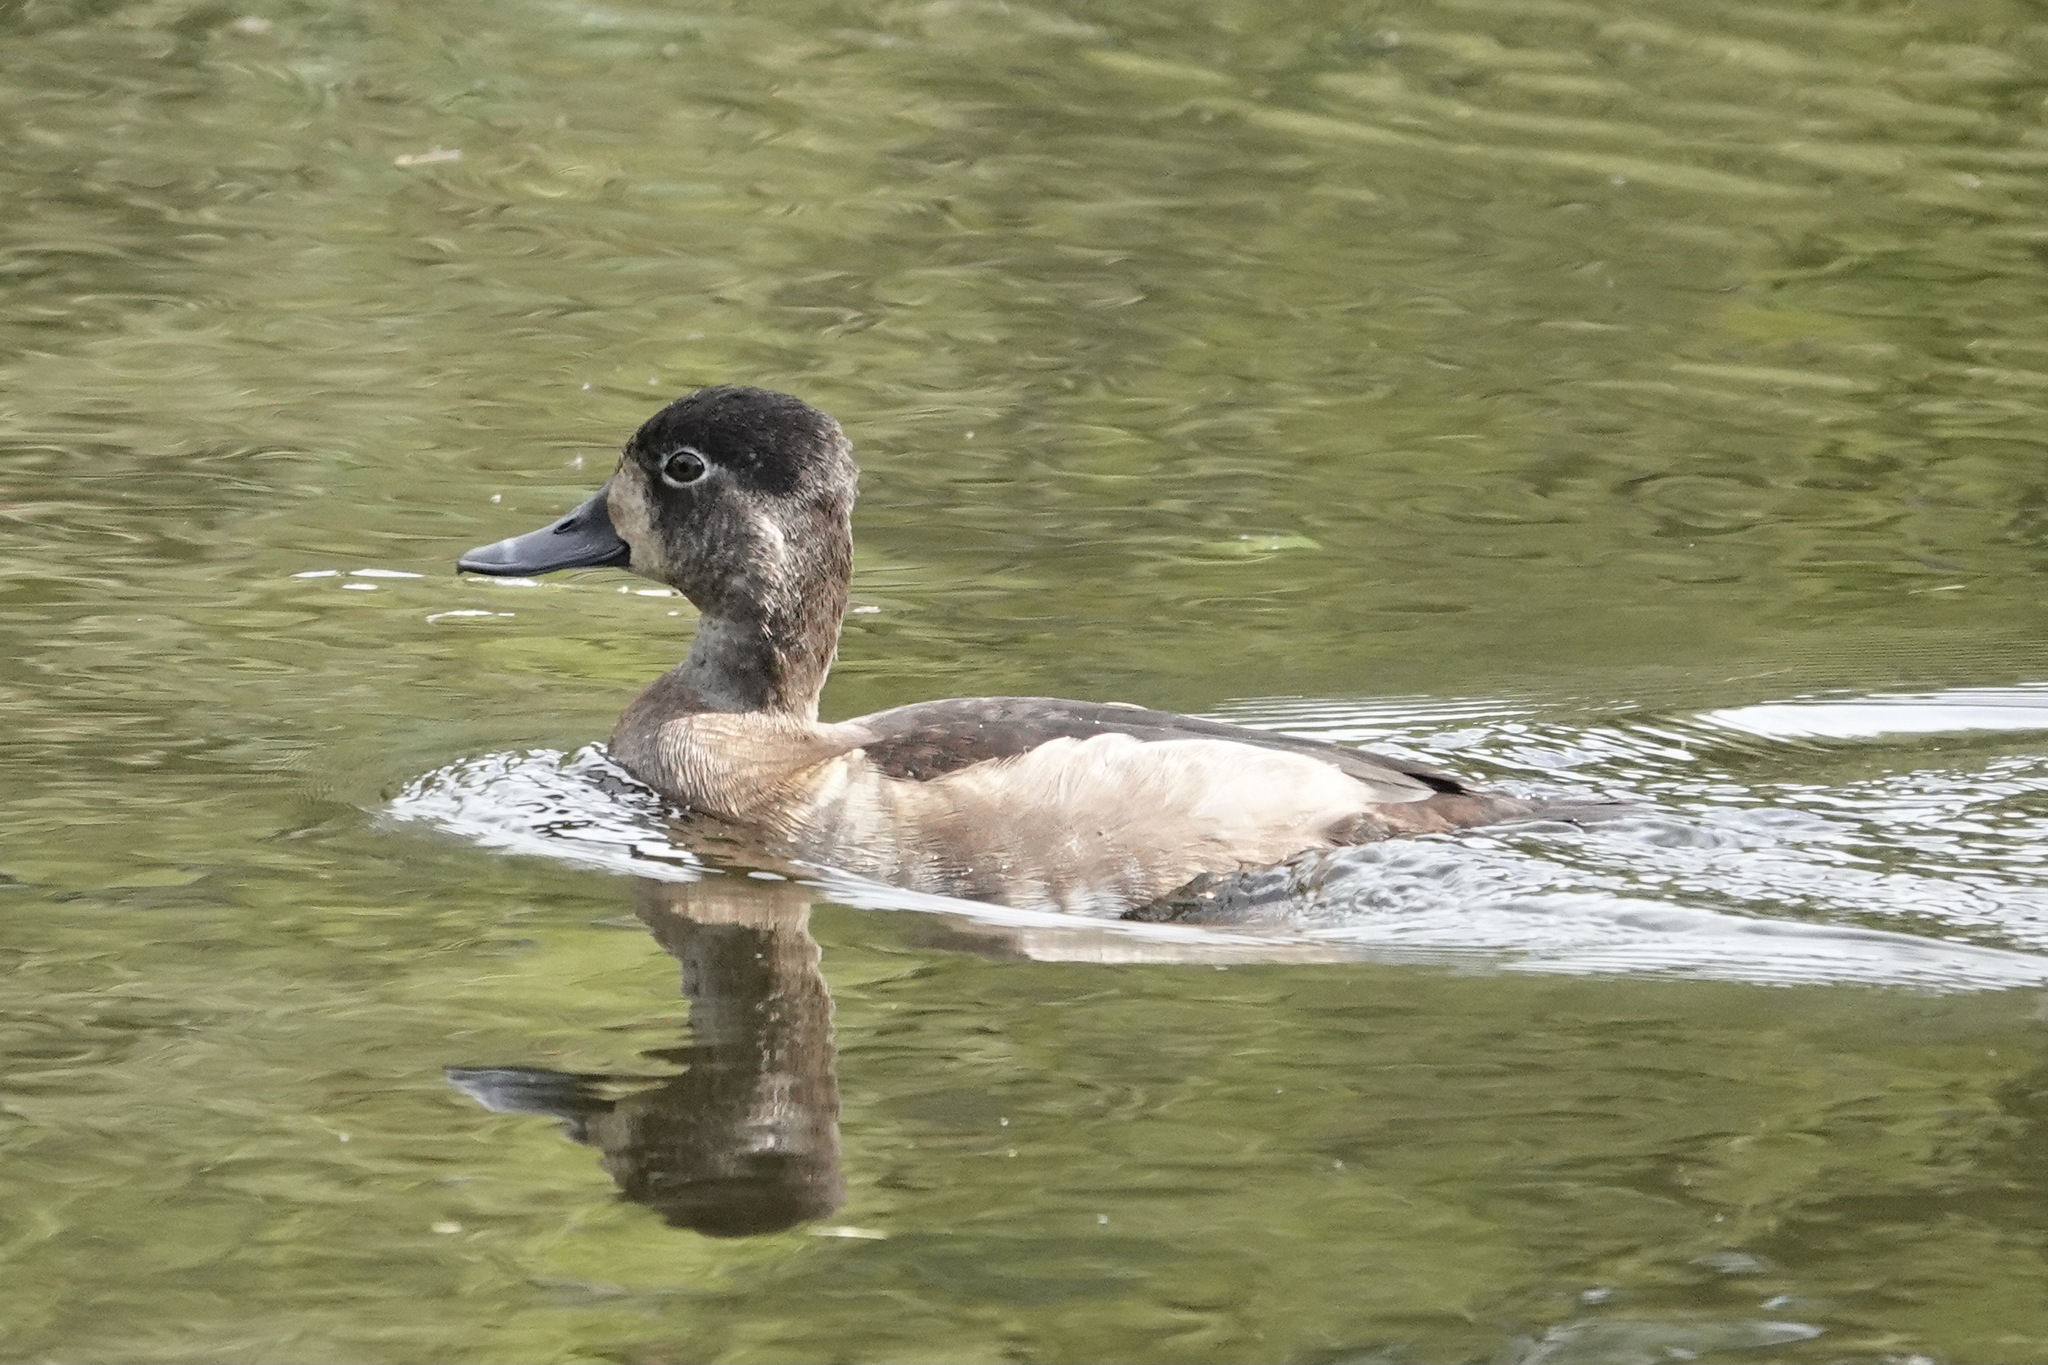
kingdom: Animalia
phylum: Chordata
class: Aves
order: Anseriformes
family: Anatidae
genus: Aythya
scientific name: Aythya collaris
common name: Ring-necked duck
